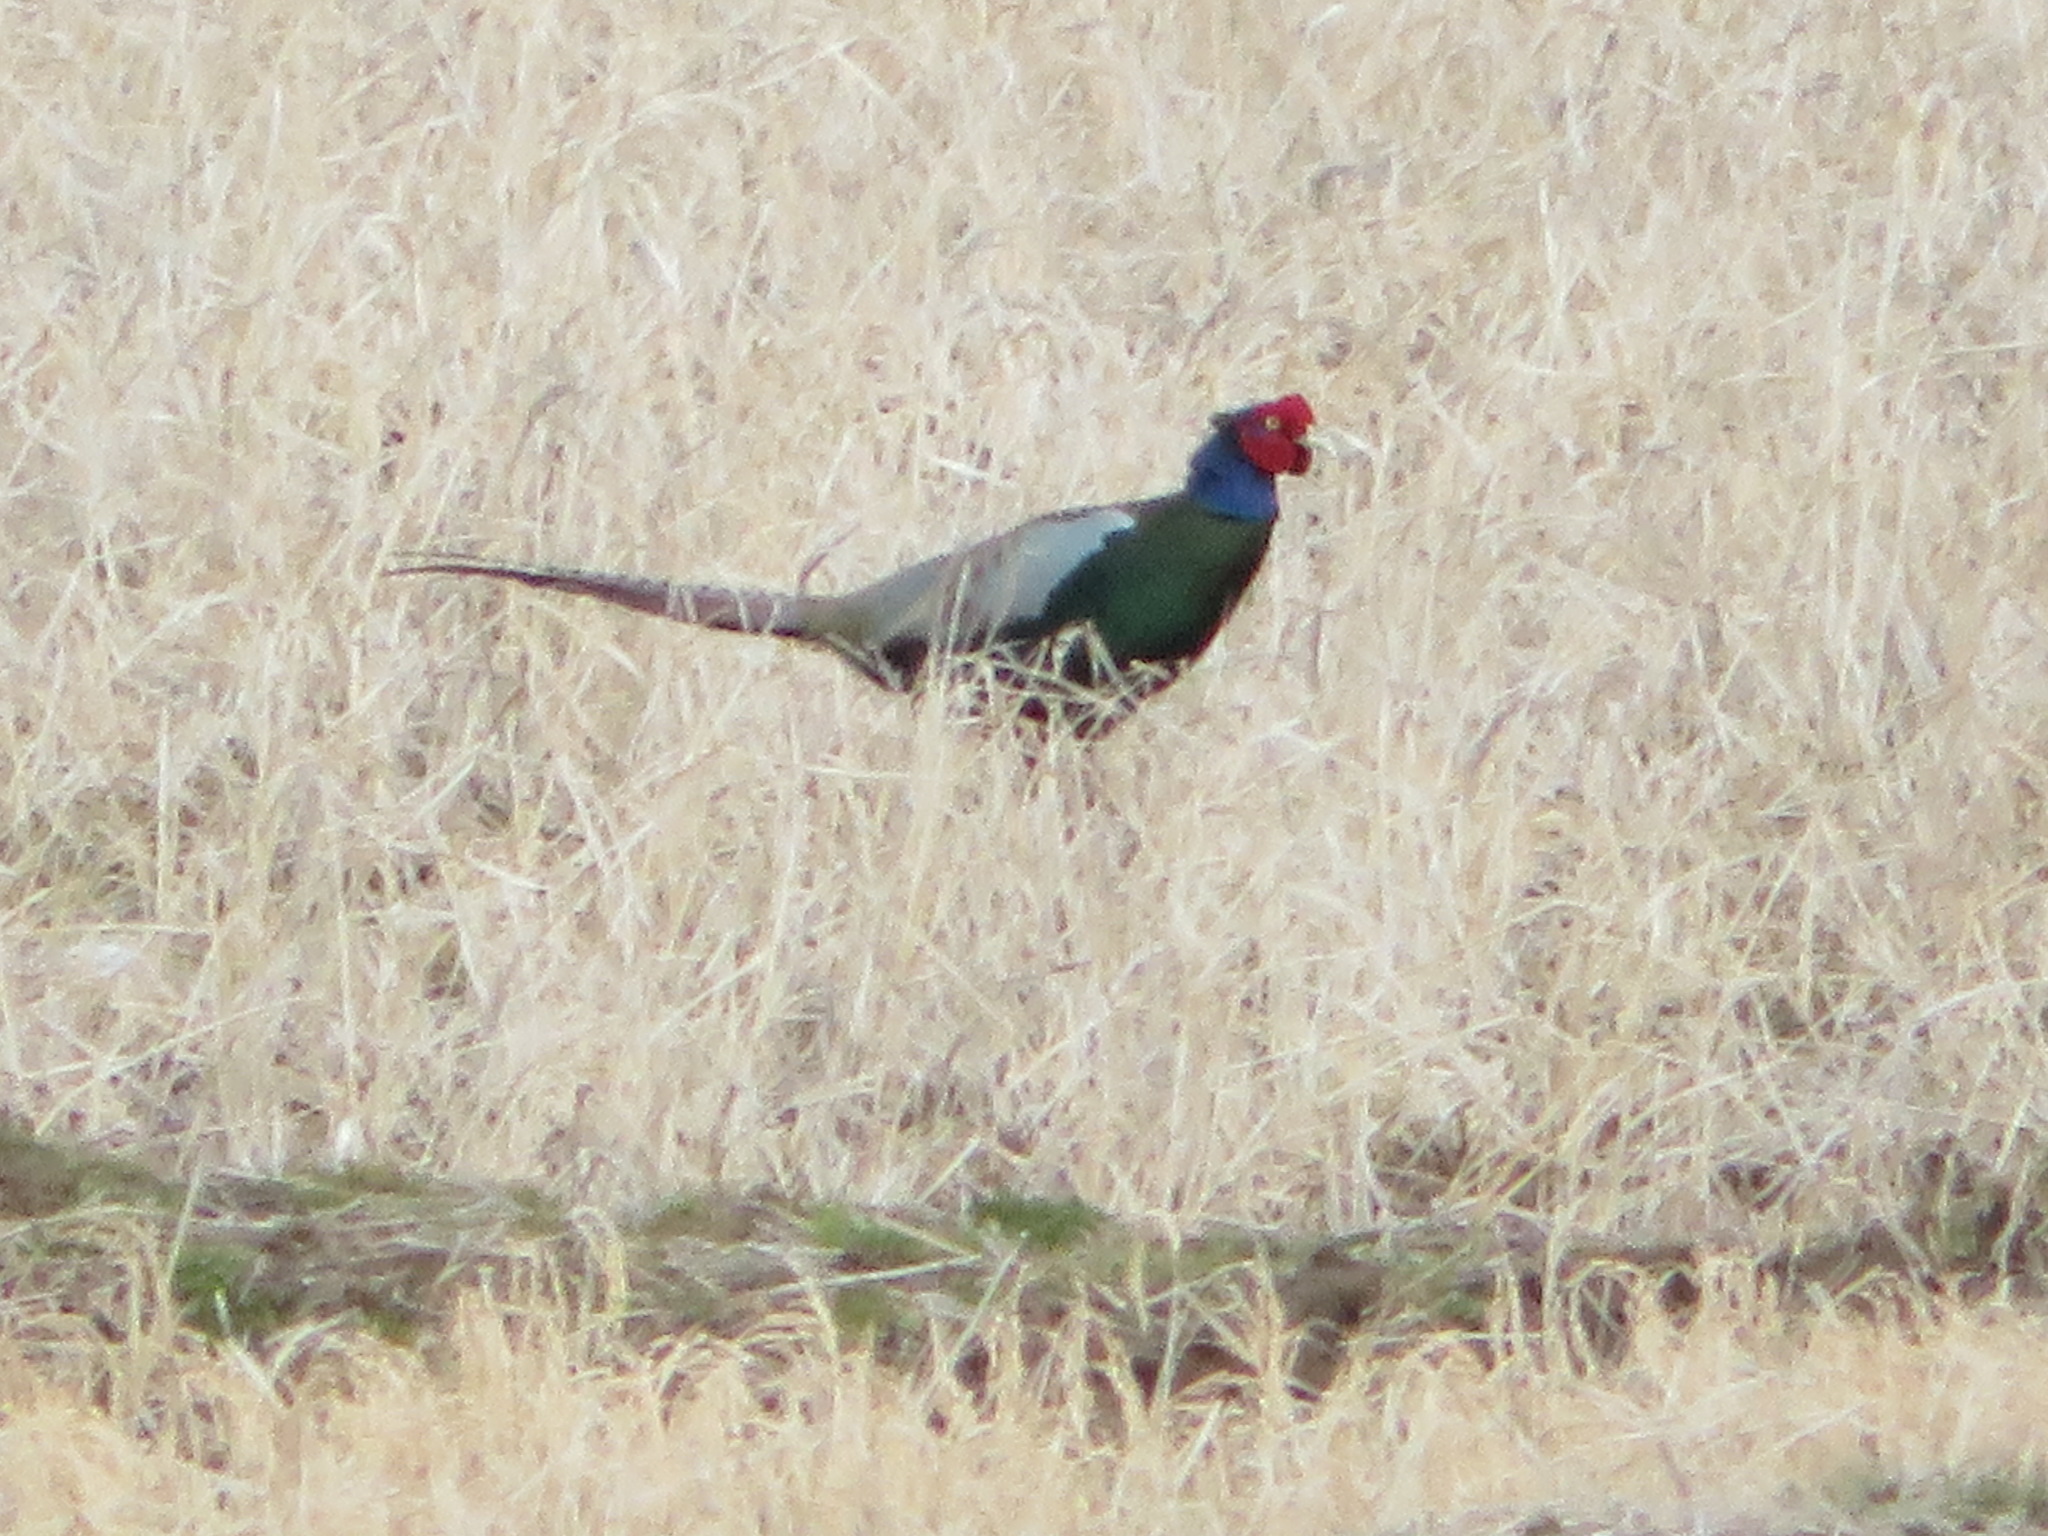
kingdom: Animalia
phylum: Chordata
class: Aves
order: Galliformes
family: Phasianidae
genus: Phasianus
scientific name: Phasianus versicolor
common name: Green pheasant
